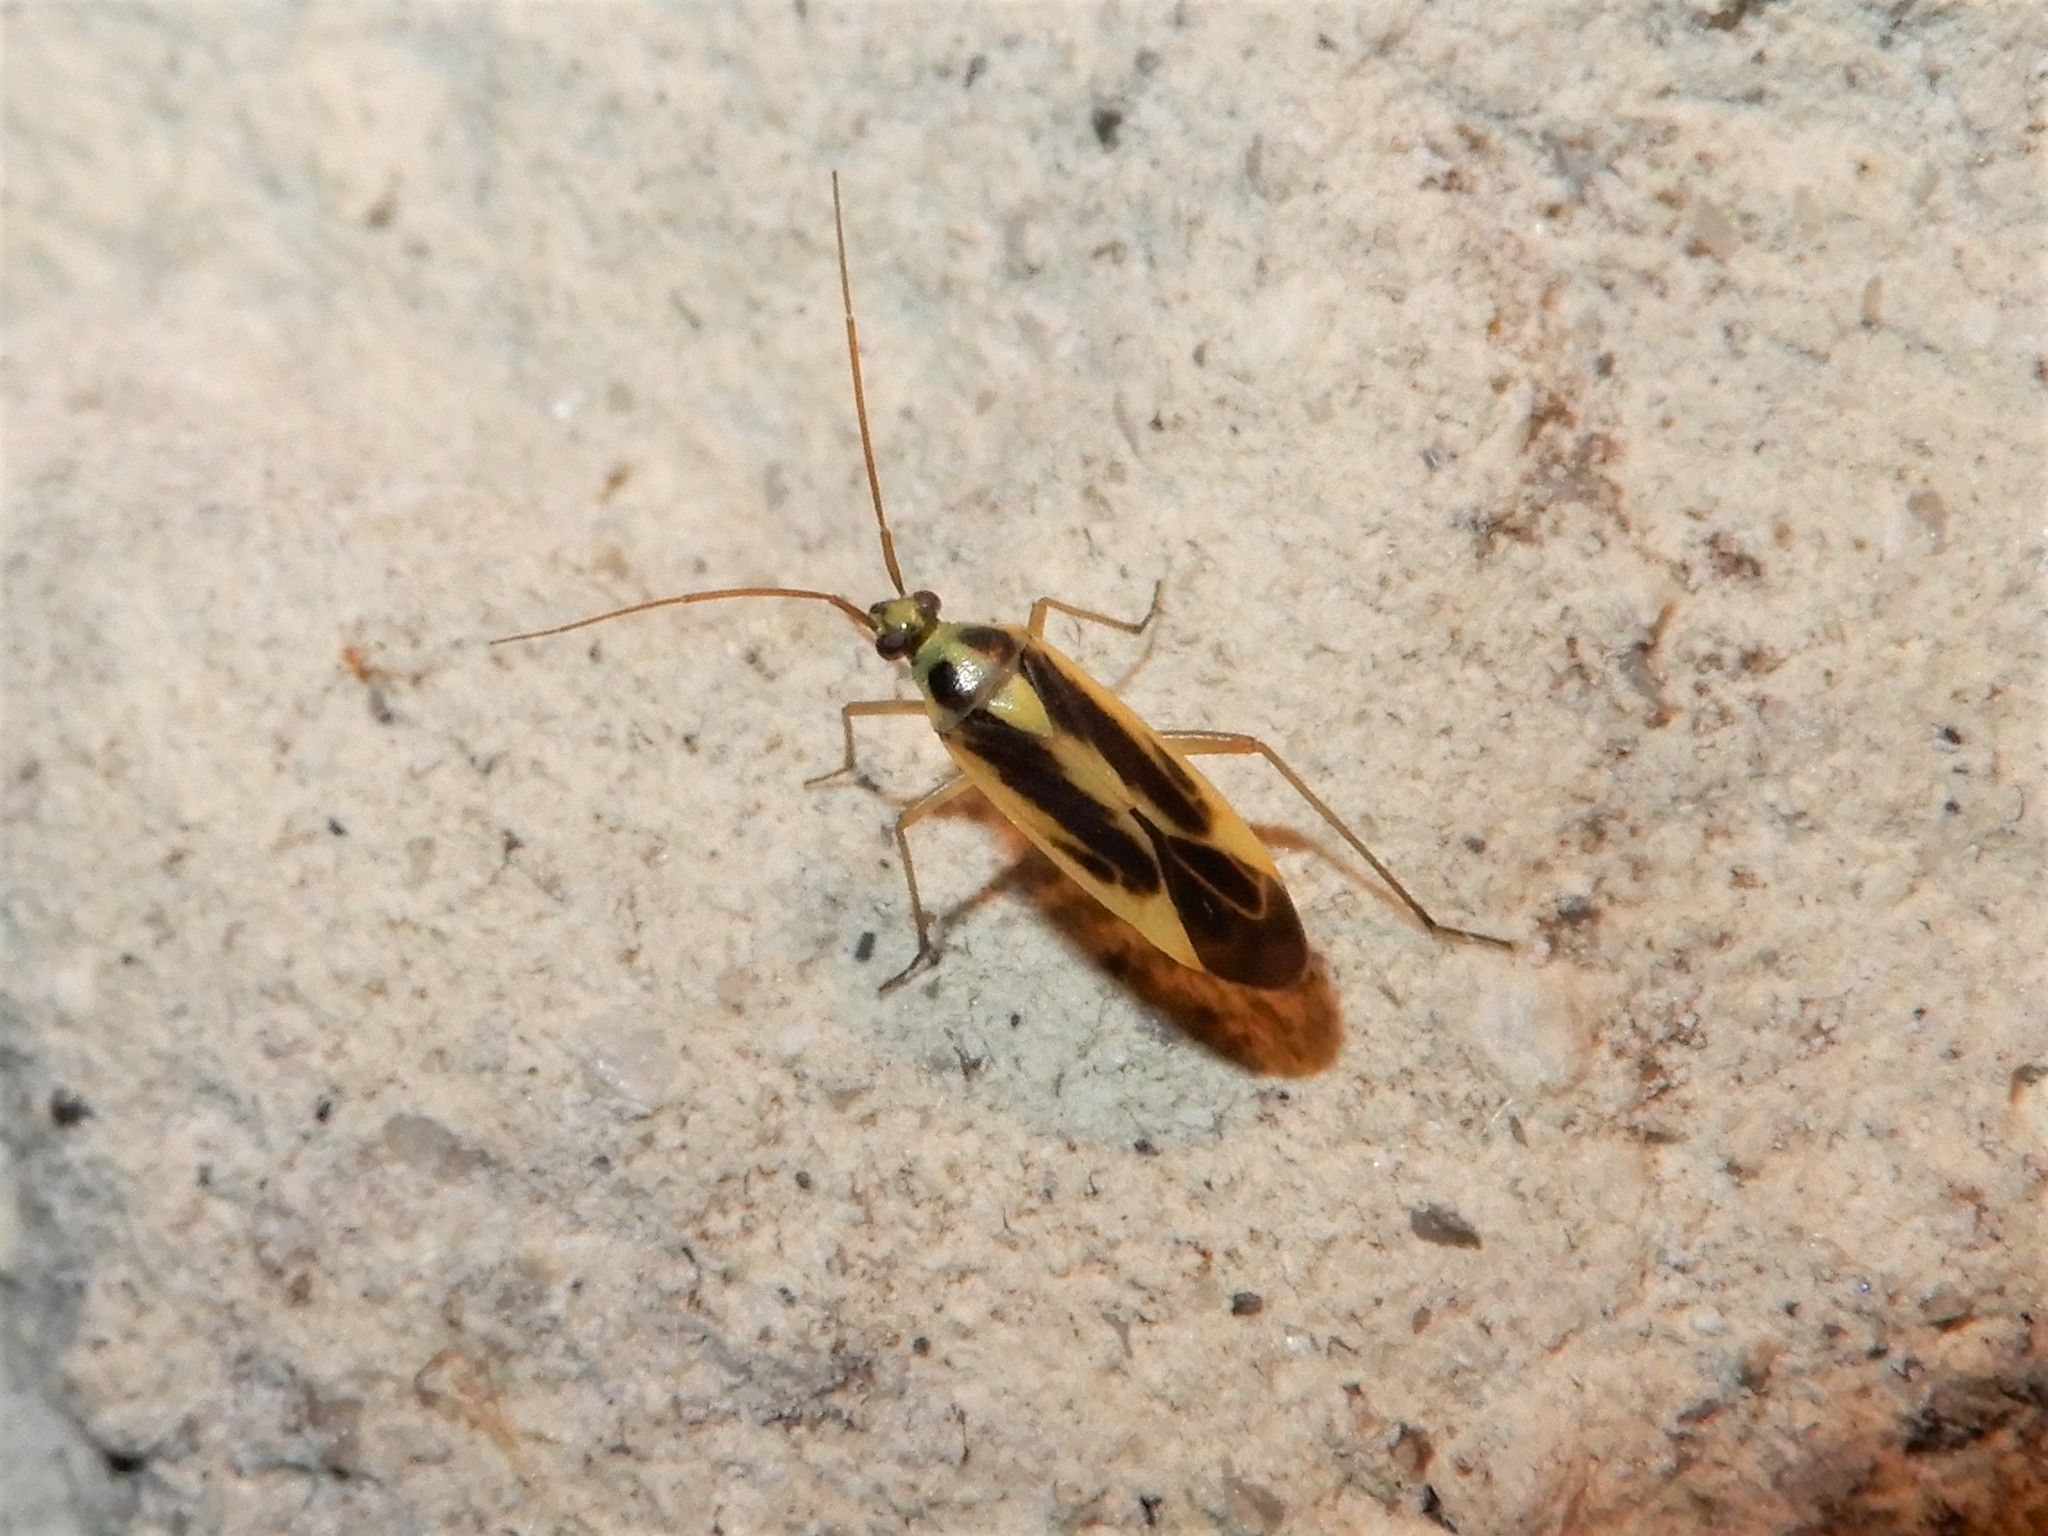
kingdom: Animalia
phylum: Arthropoda
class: Insecta
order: Hemiptera
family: Miridae
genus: Stenotus
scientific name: Stenotus binotatus
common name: Plant bug
